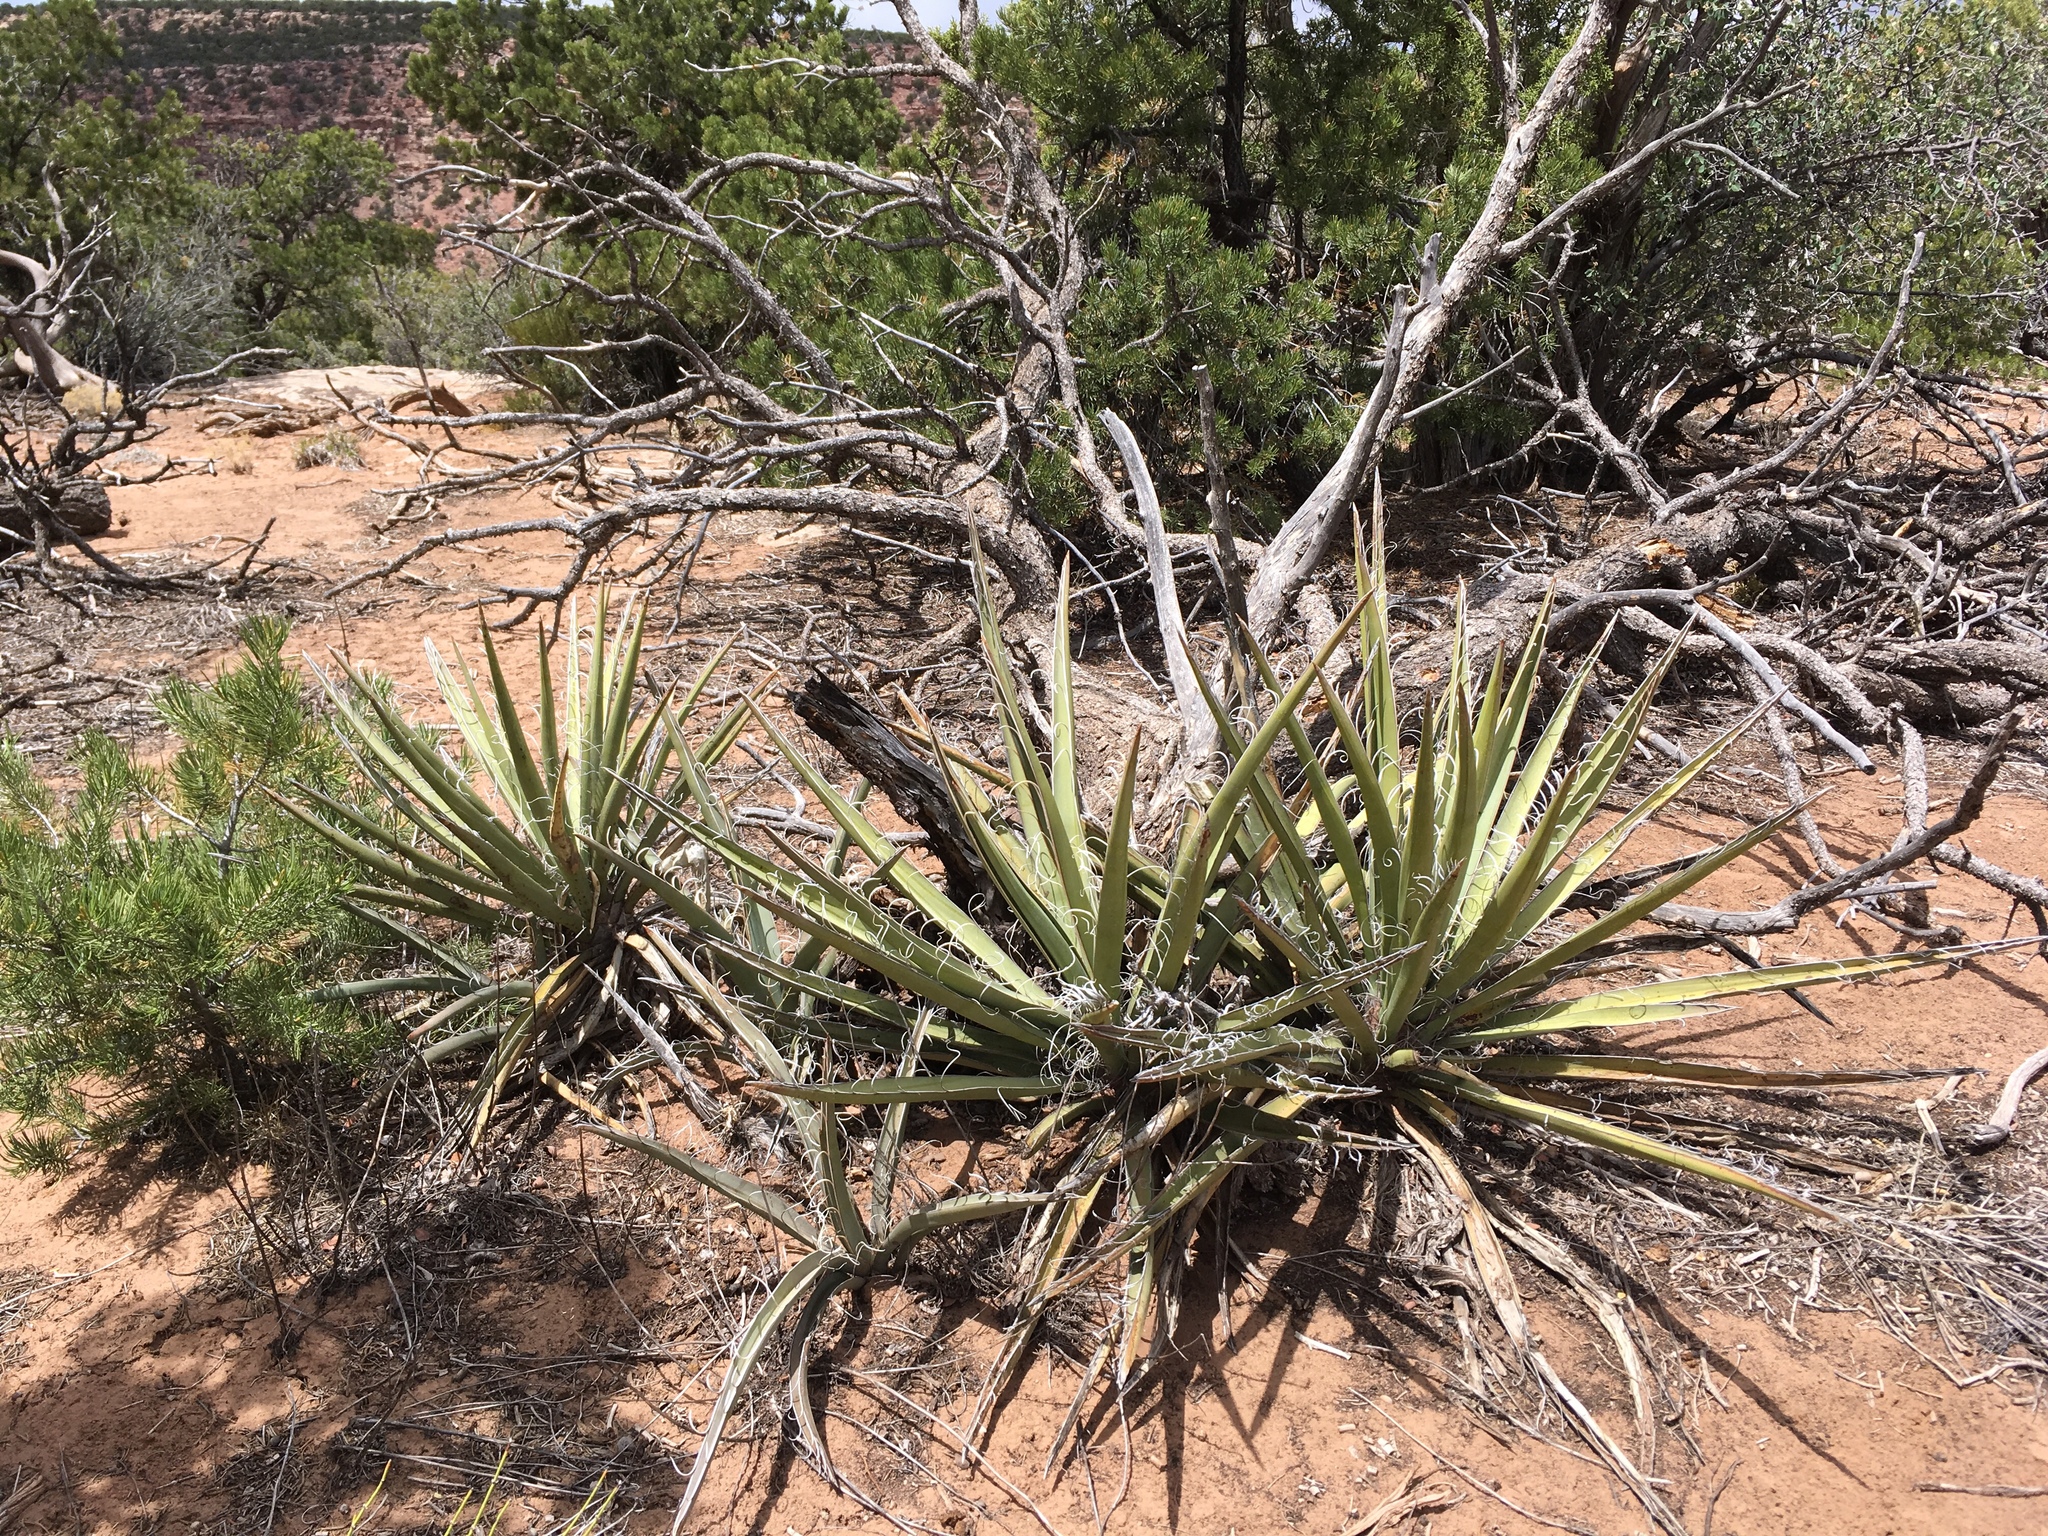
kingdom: Plantae
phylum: Tracheophyta
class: Liliopsida
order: Asparagales
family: Asparagaceae
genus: Yucca
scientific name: Yucca baccata
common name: Banana yucca
